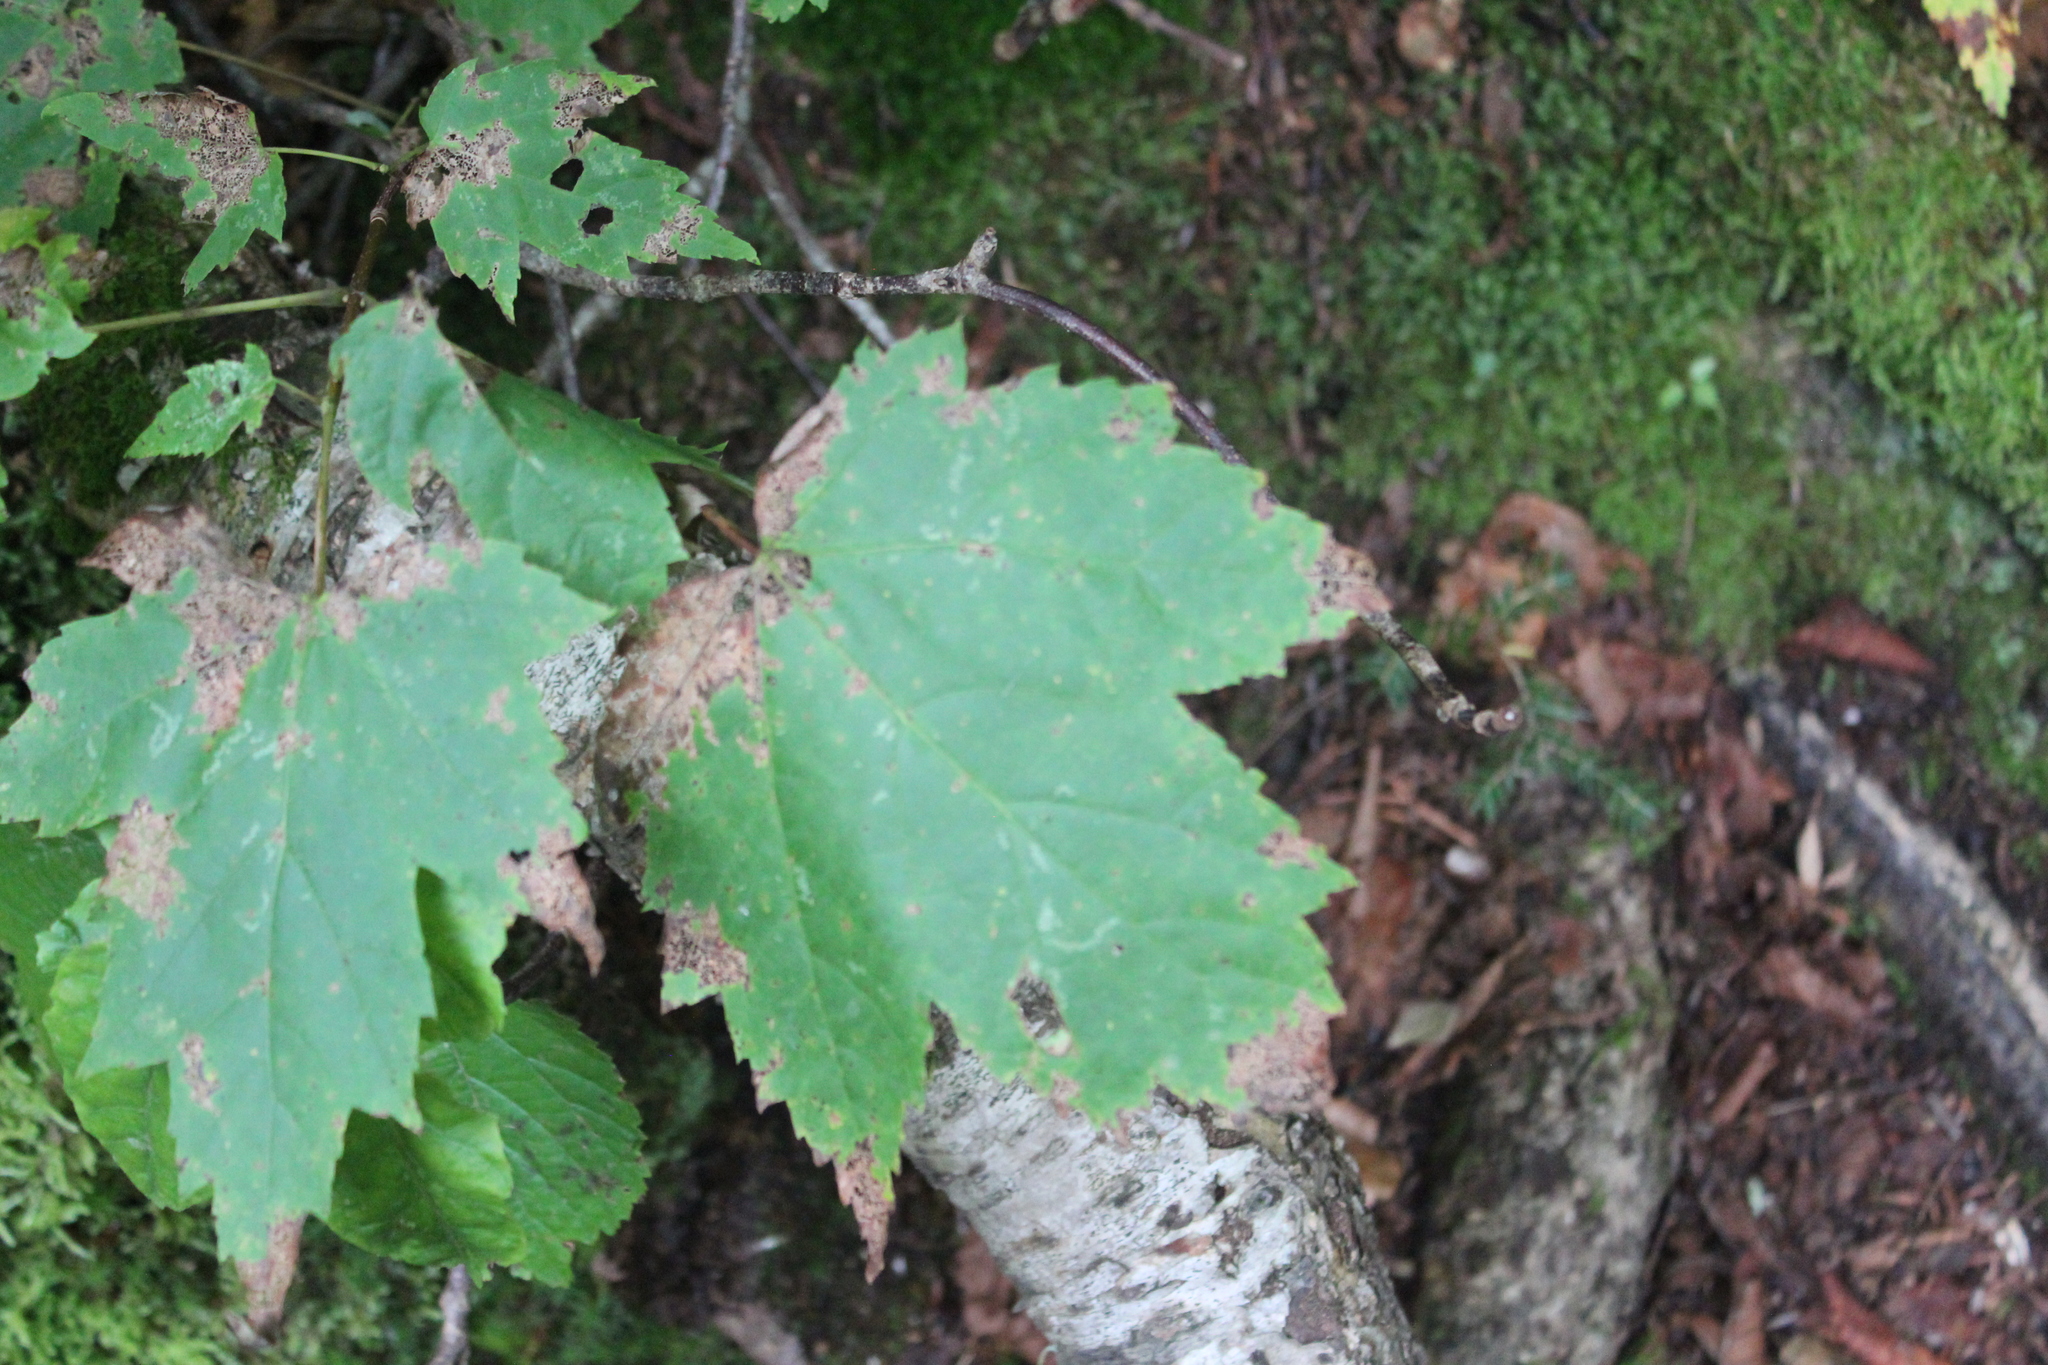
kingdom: Plantae
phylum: Tracheophyta
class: Magnoliopsida
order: Sapindales
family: Sapindaceae
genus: Acer
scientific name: Acer rubrum
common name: Red maple
